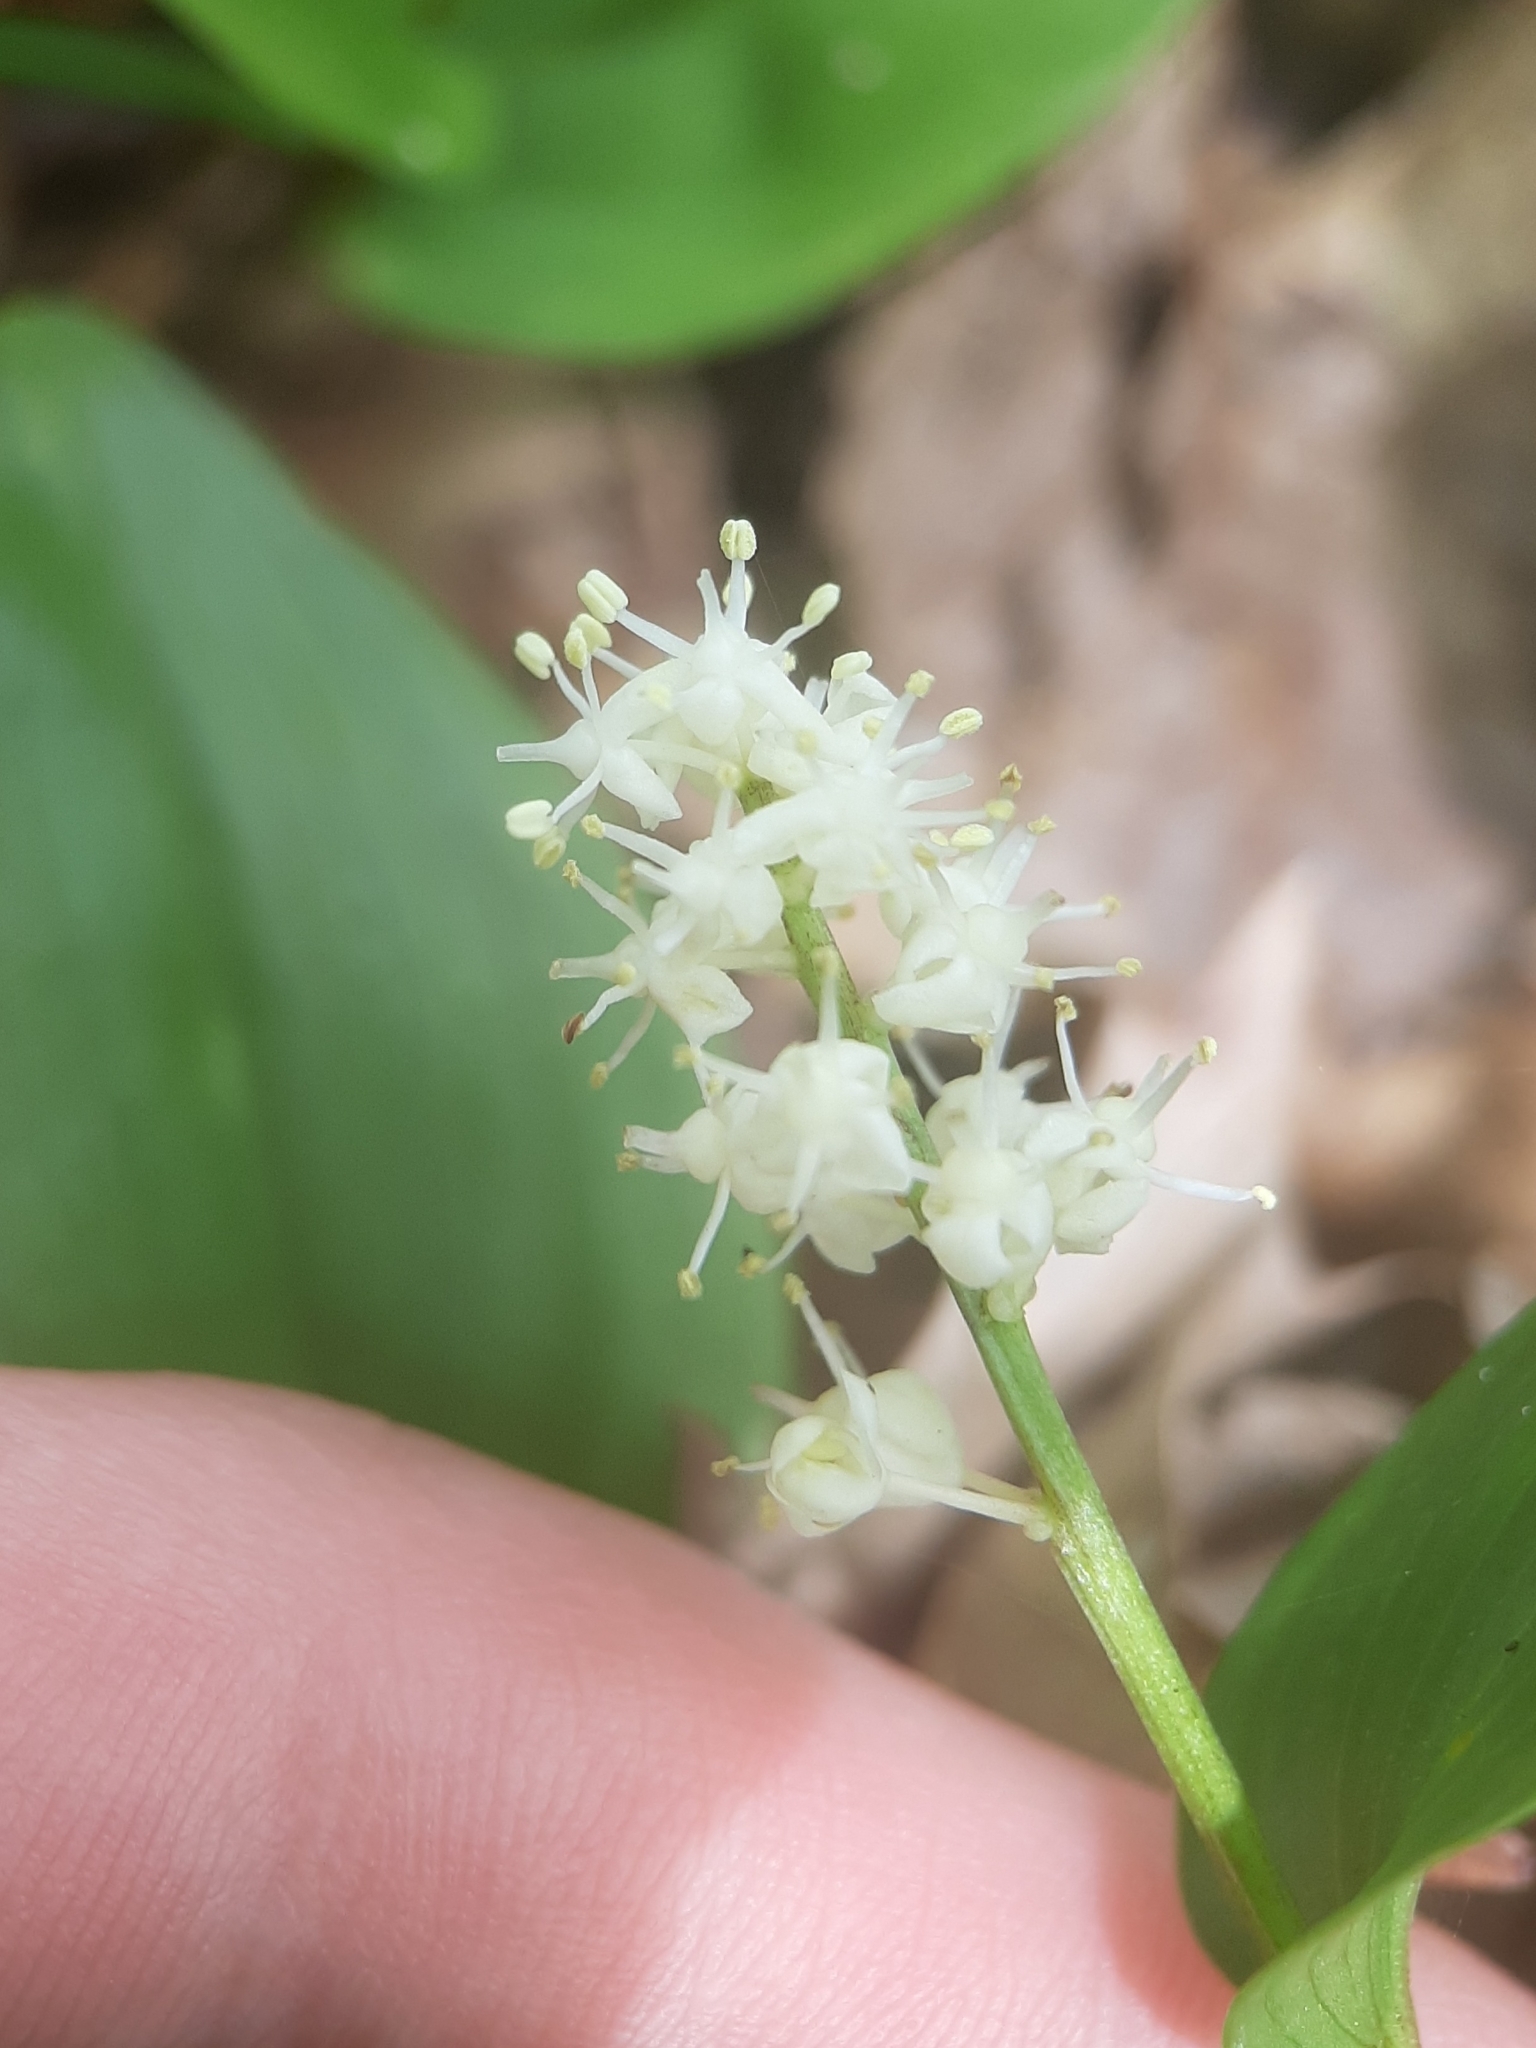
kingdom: Plantae
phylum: Tracheophyta
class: Liliopsida
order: Asparagales
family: Asparagaceae
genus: Maianthemum
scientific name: Maianthemum canadense
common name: False lily-of-the-valley
